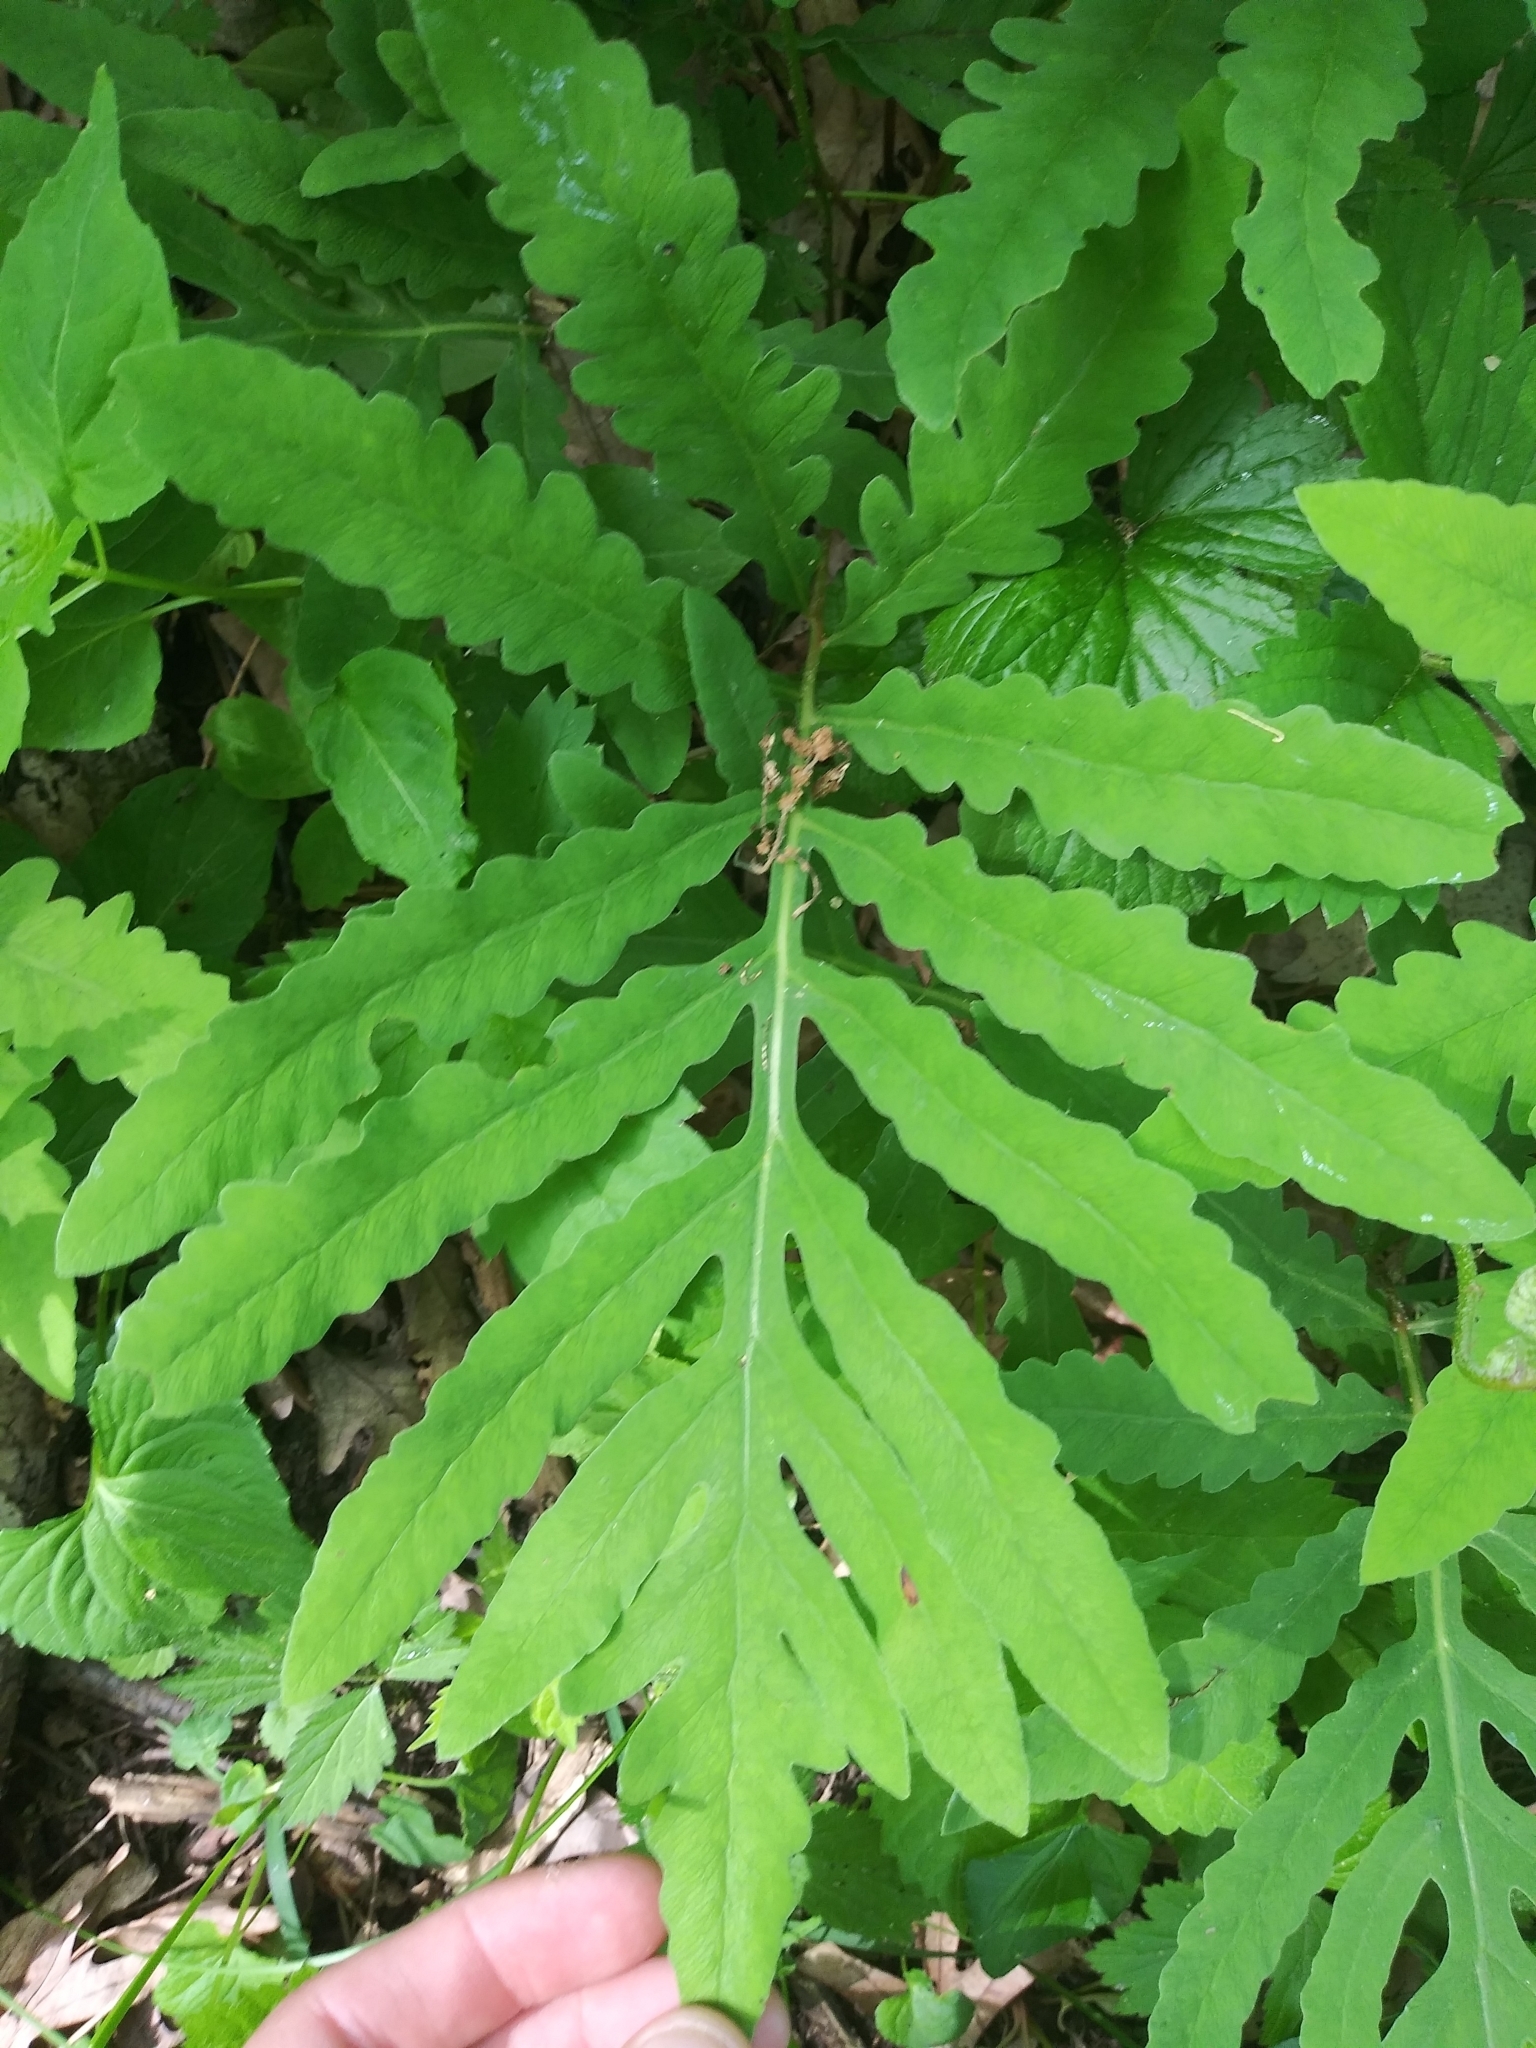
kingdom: Plantae
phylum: Tracheophyta
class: Polypodiopsida
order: Polypodiales
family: Onocleaceae
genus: Onoclea
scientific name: Onoclea sensibilis
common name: Sensitive fern
